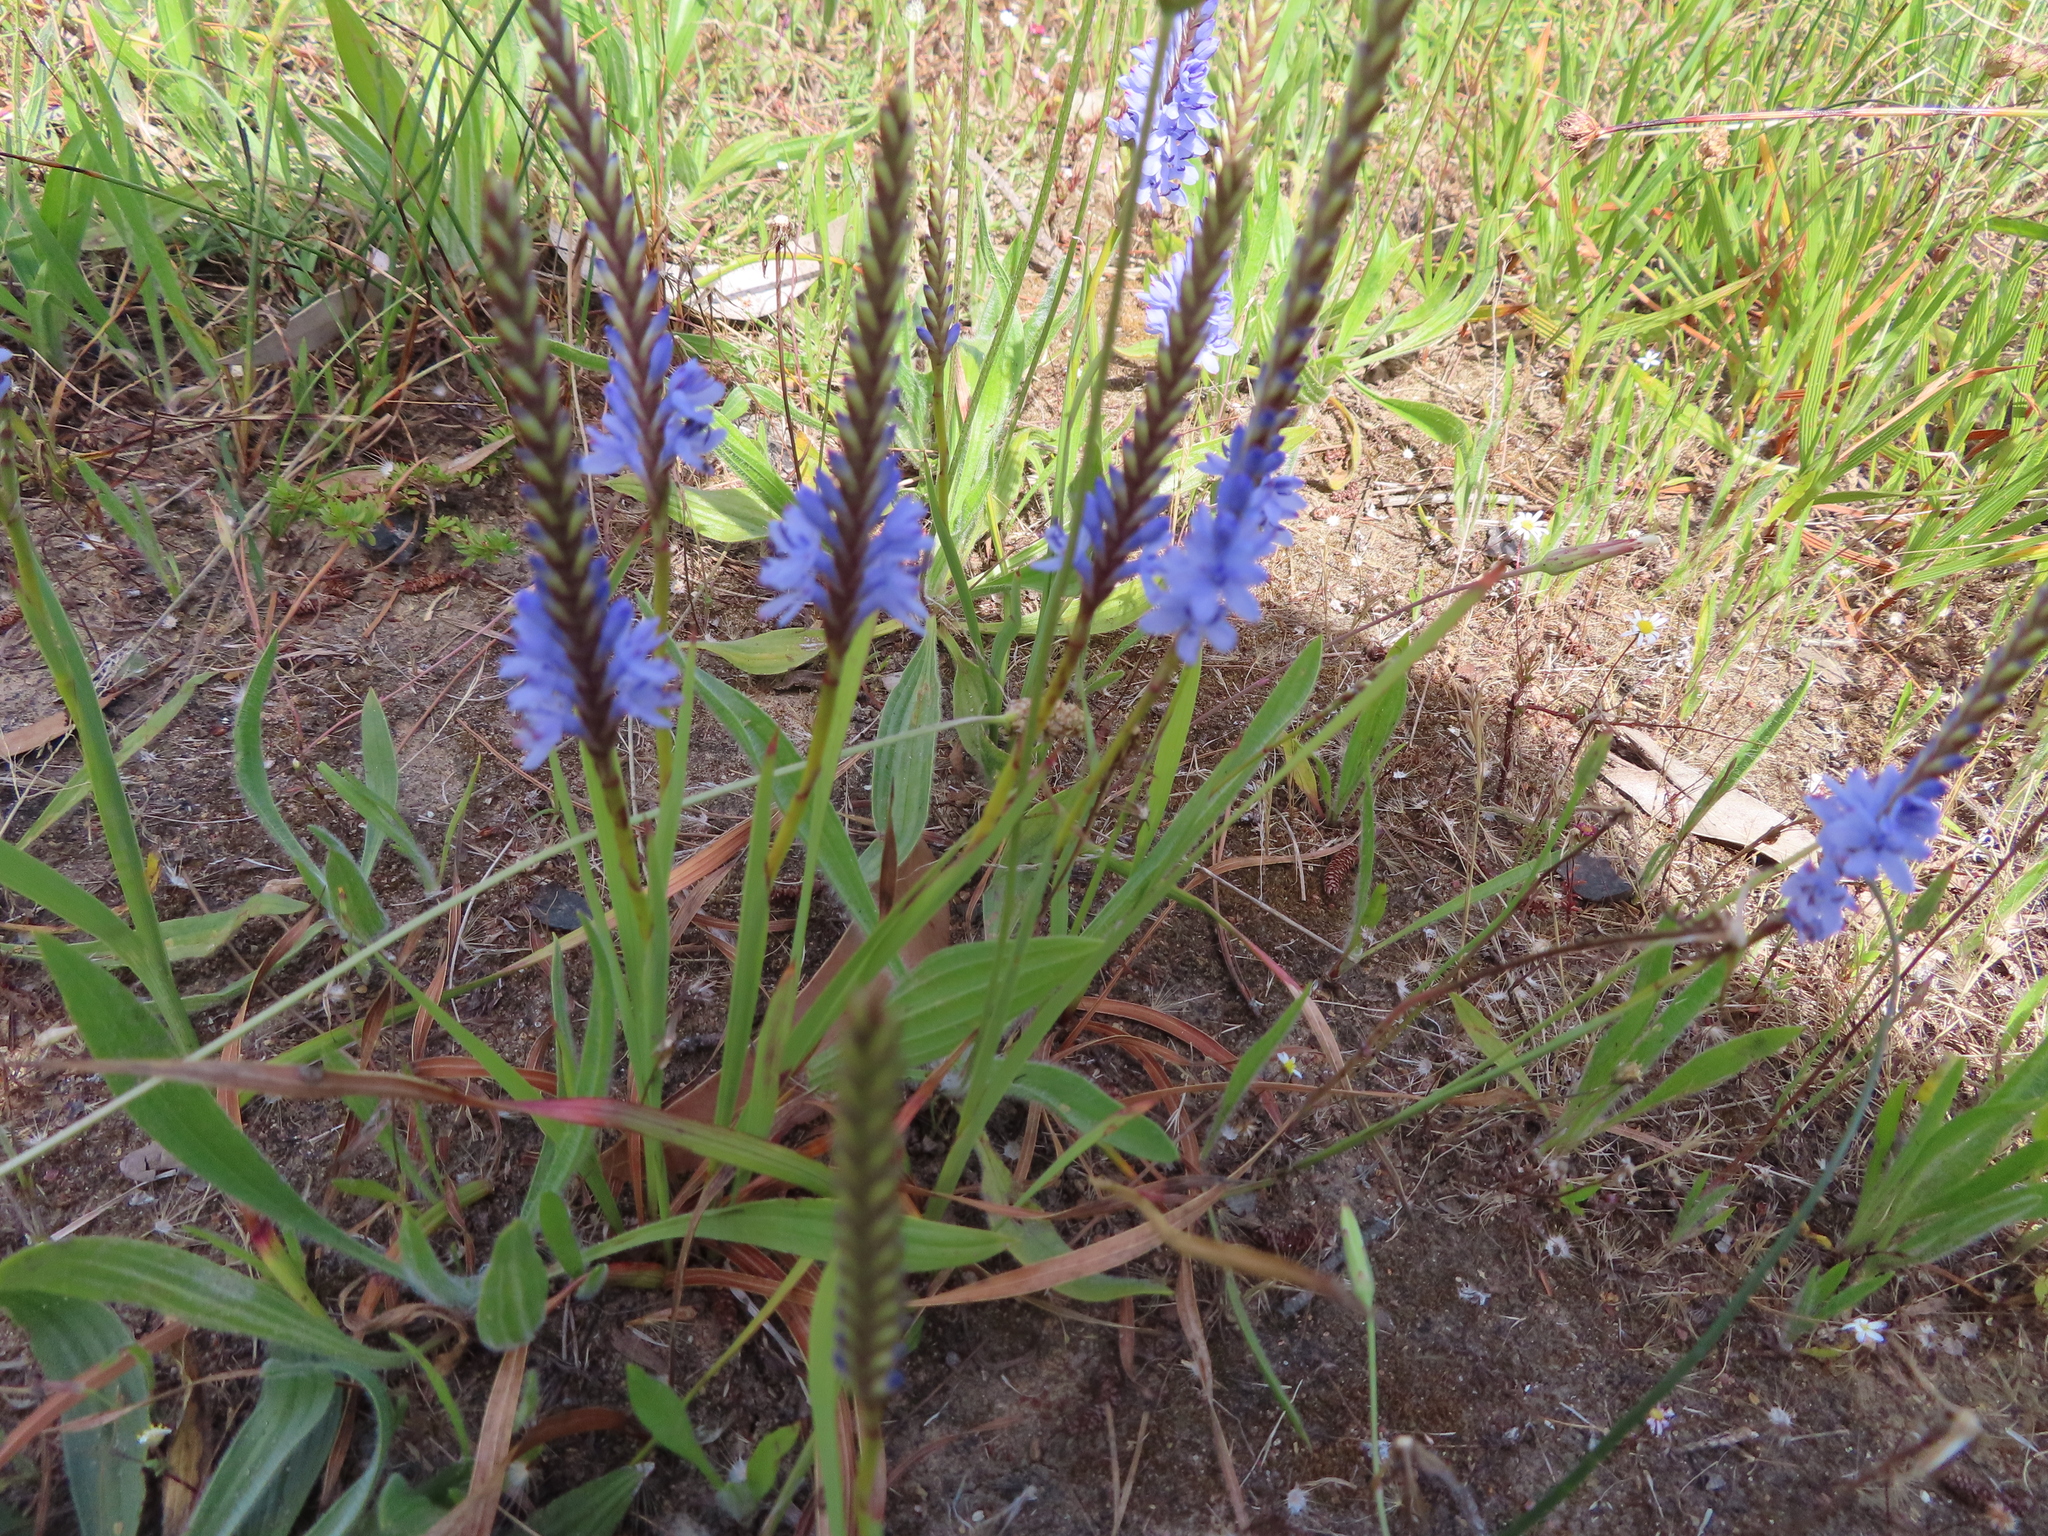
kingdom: Plantae
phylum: Tracheophyta
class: Liliopsida
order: Asparagales
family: Iridaceae
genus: Micranthus
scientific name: Micranthus alopecuroides
